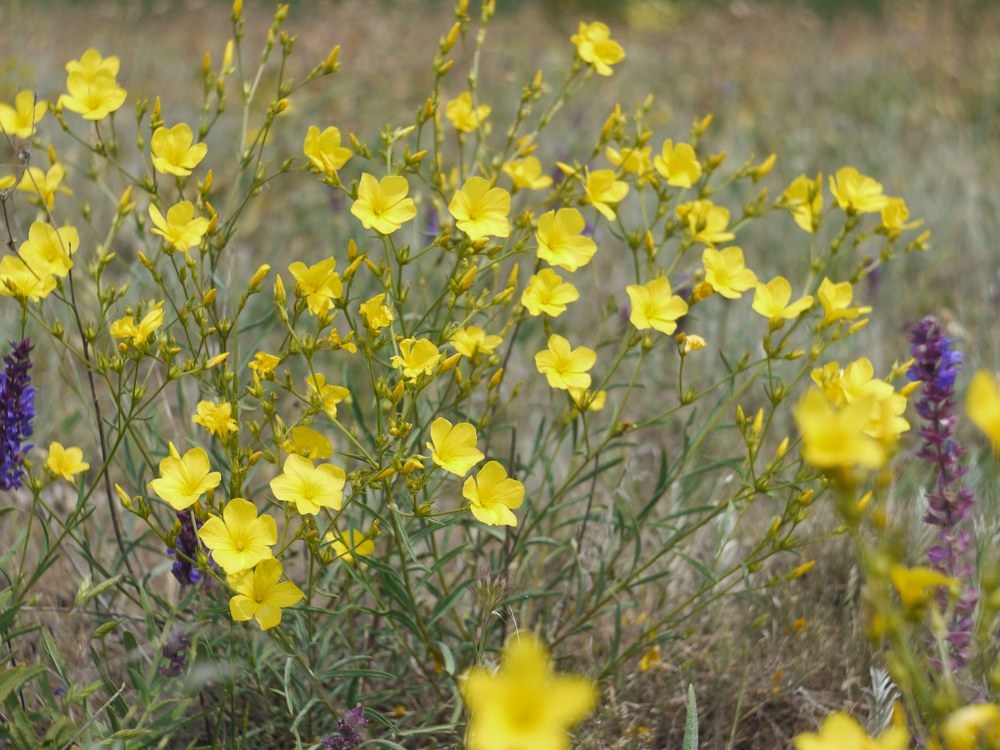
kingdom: Plantae
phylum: Tracheophyta
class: Magnoliopsida
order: Malpighiales
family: Linaceae
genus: Linum
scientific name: Linum tauricum
